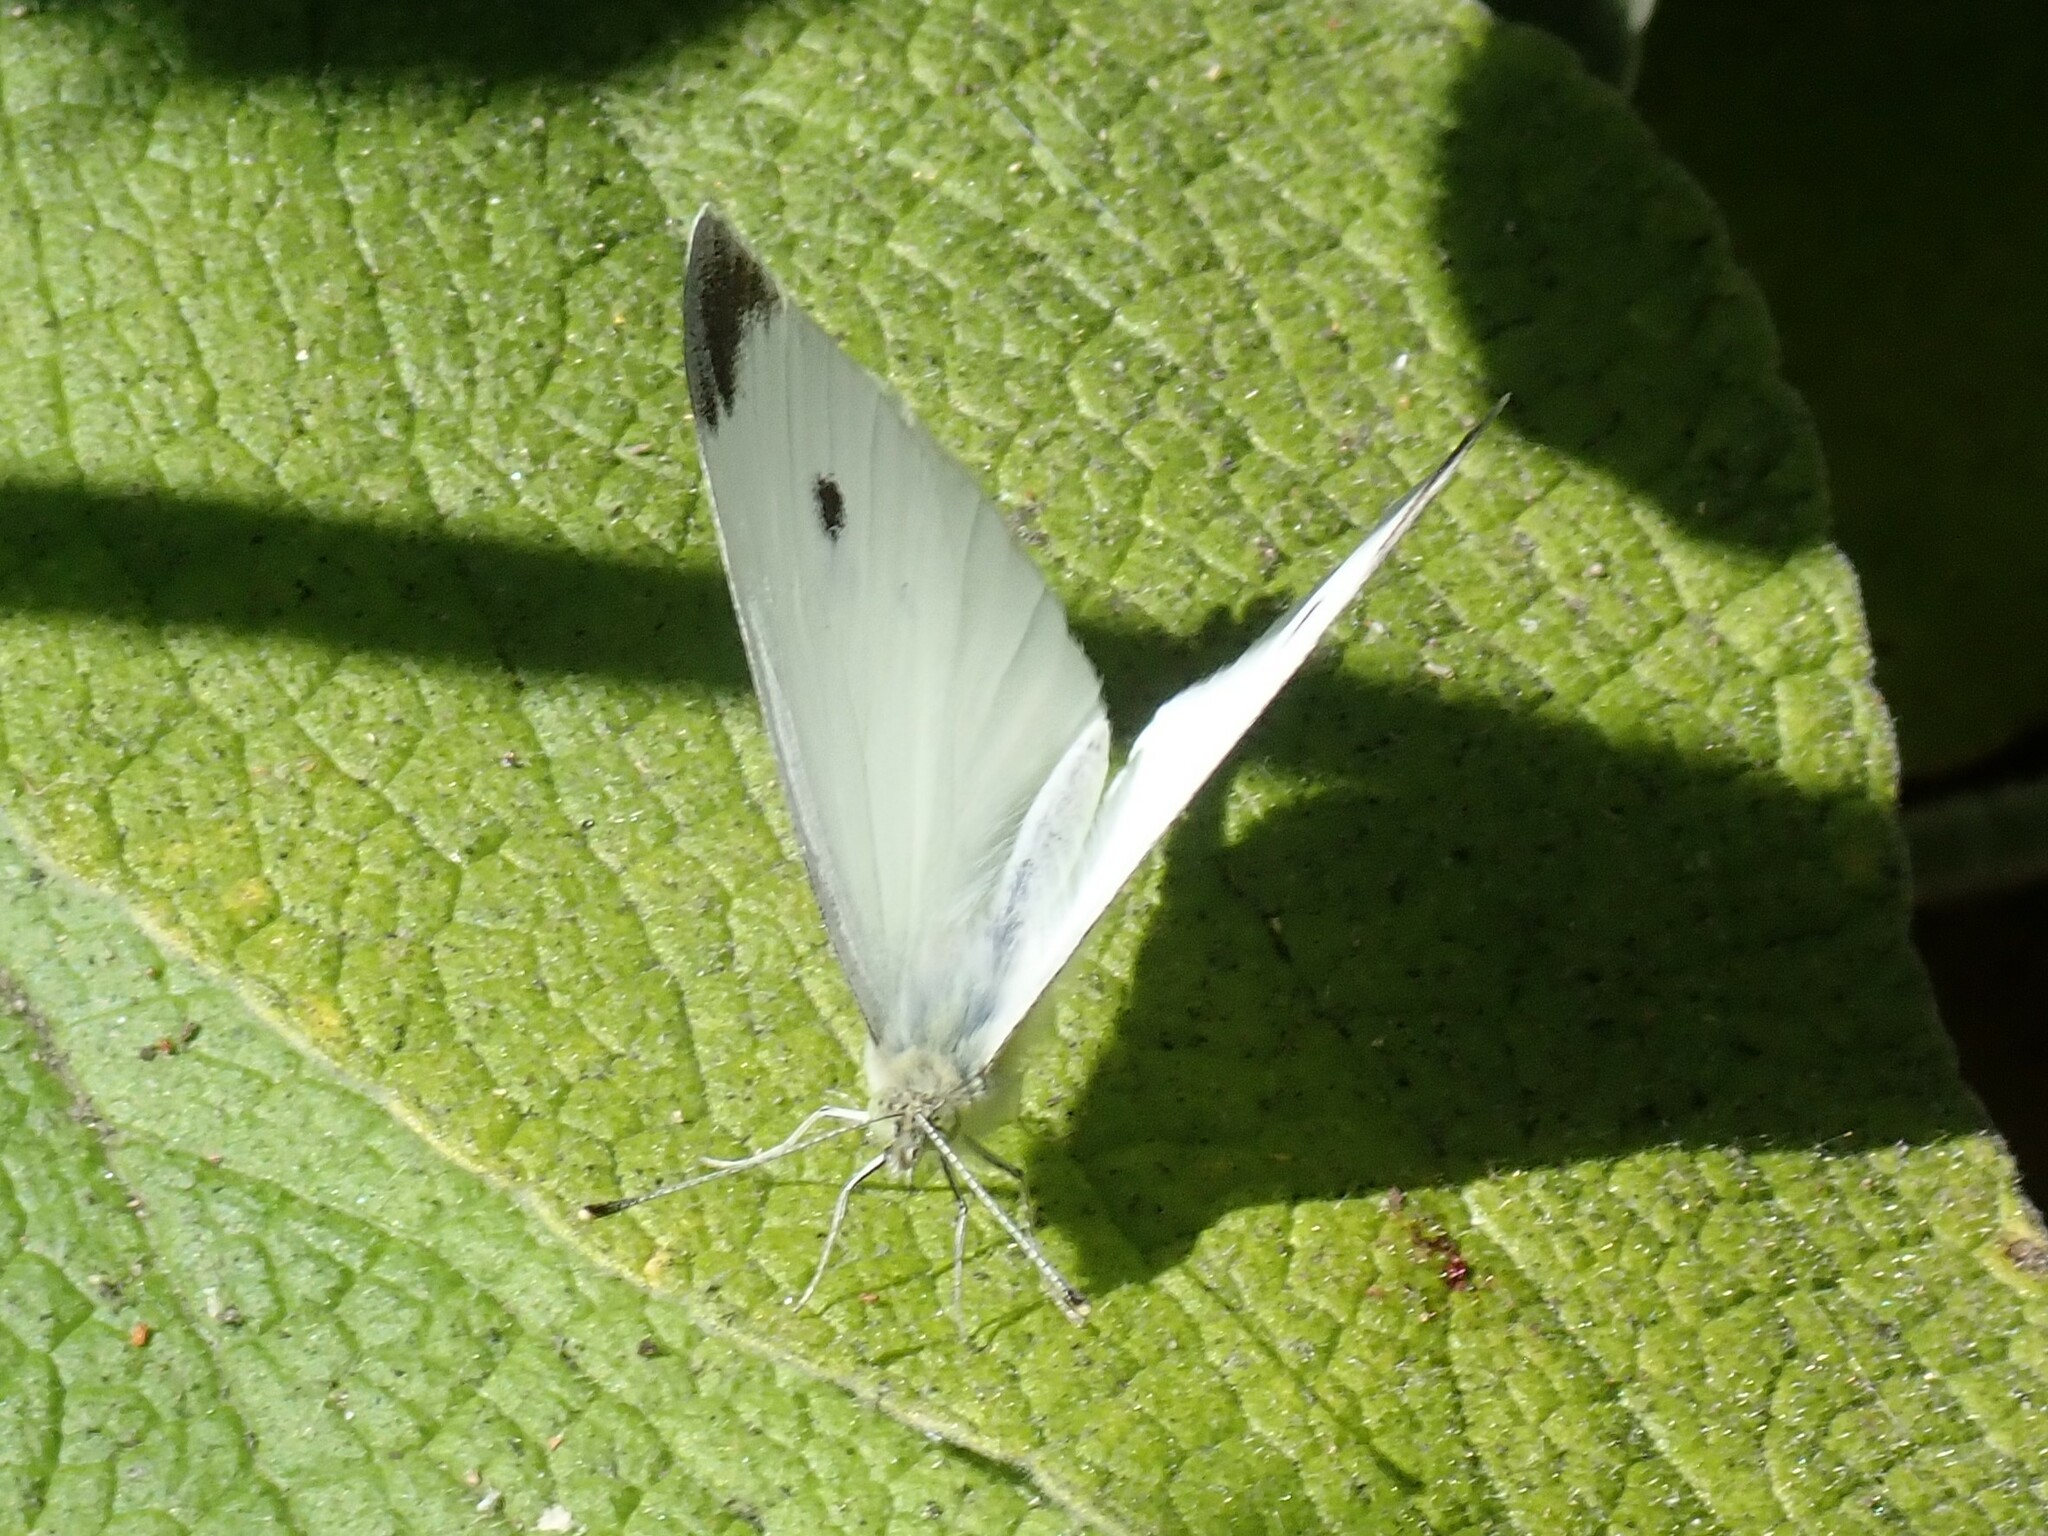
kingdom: Animalia
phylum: Arthropoda
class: Insecta
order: Lepidoptera
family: Pieridae
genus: Pieris
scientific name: Pieris rapae
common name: Small white
